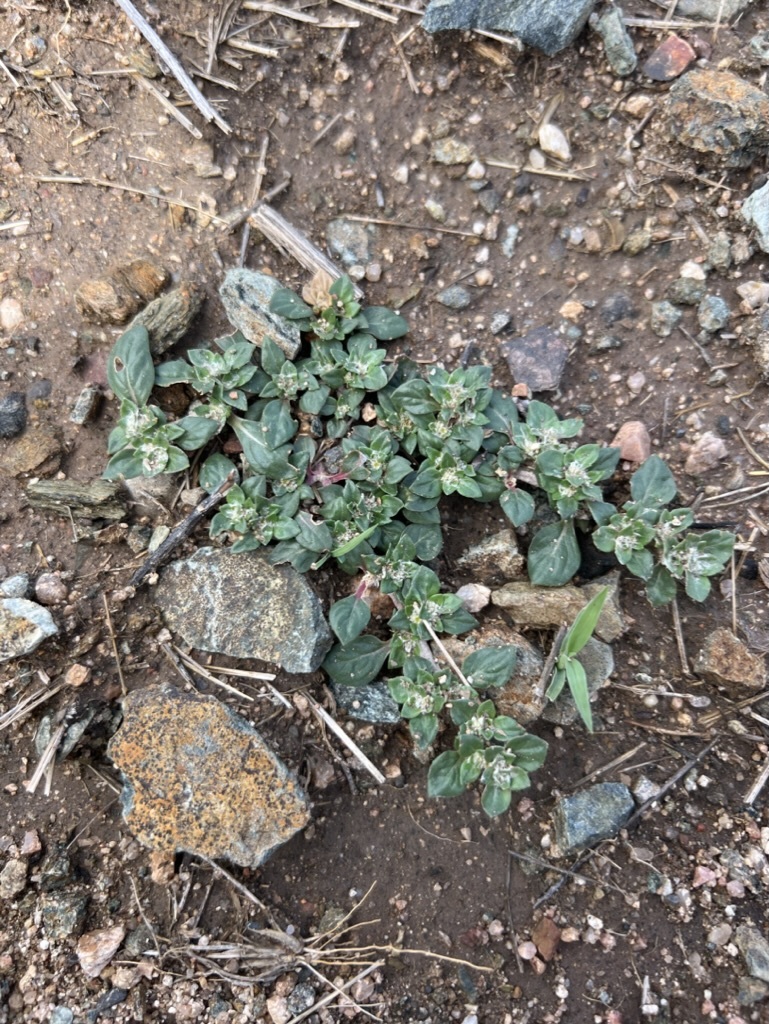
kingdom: Plantae
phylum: Tracheophyta
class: Magnoliopsida
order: Caryophyllales
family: Amaranthaceae
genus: Guilleminea
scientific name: Guilleminea densa
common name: Small matweed
